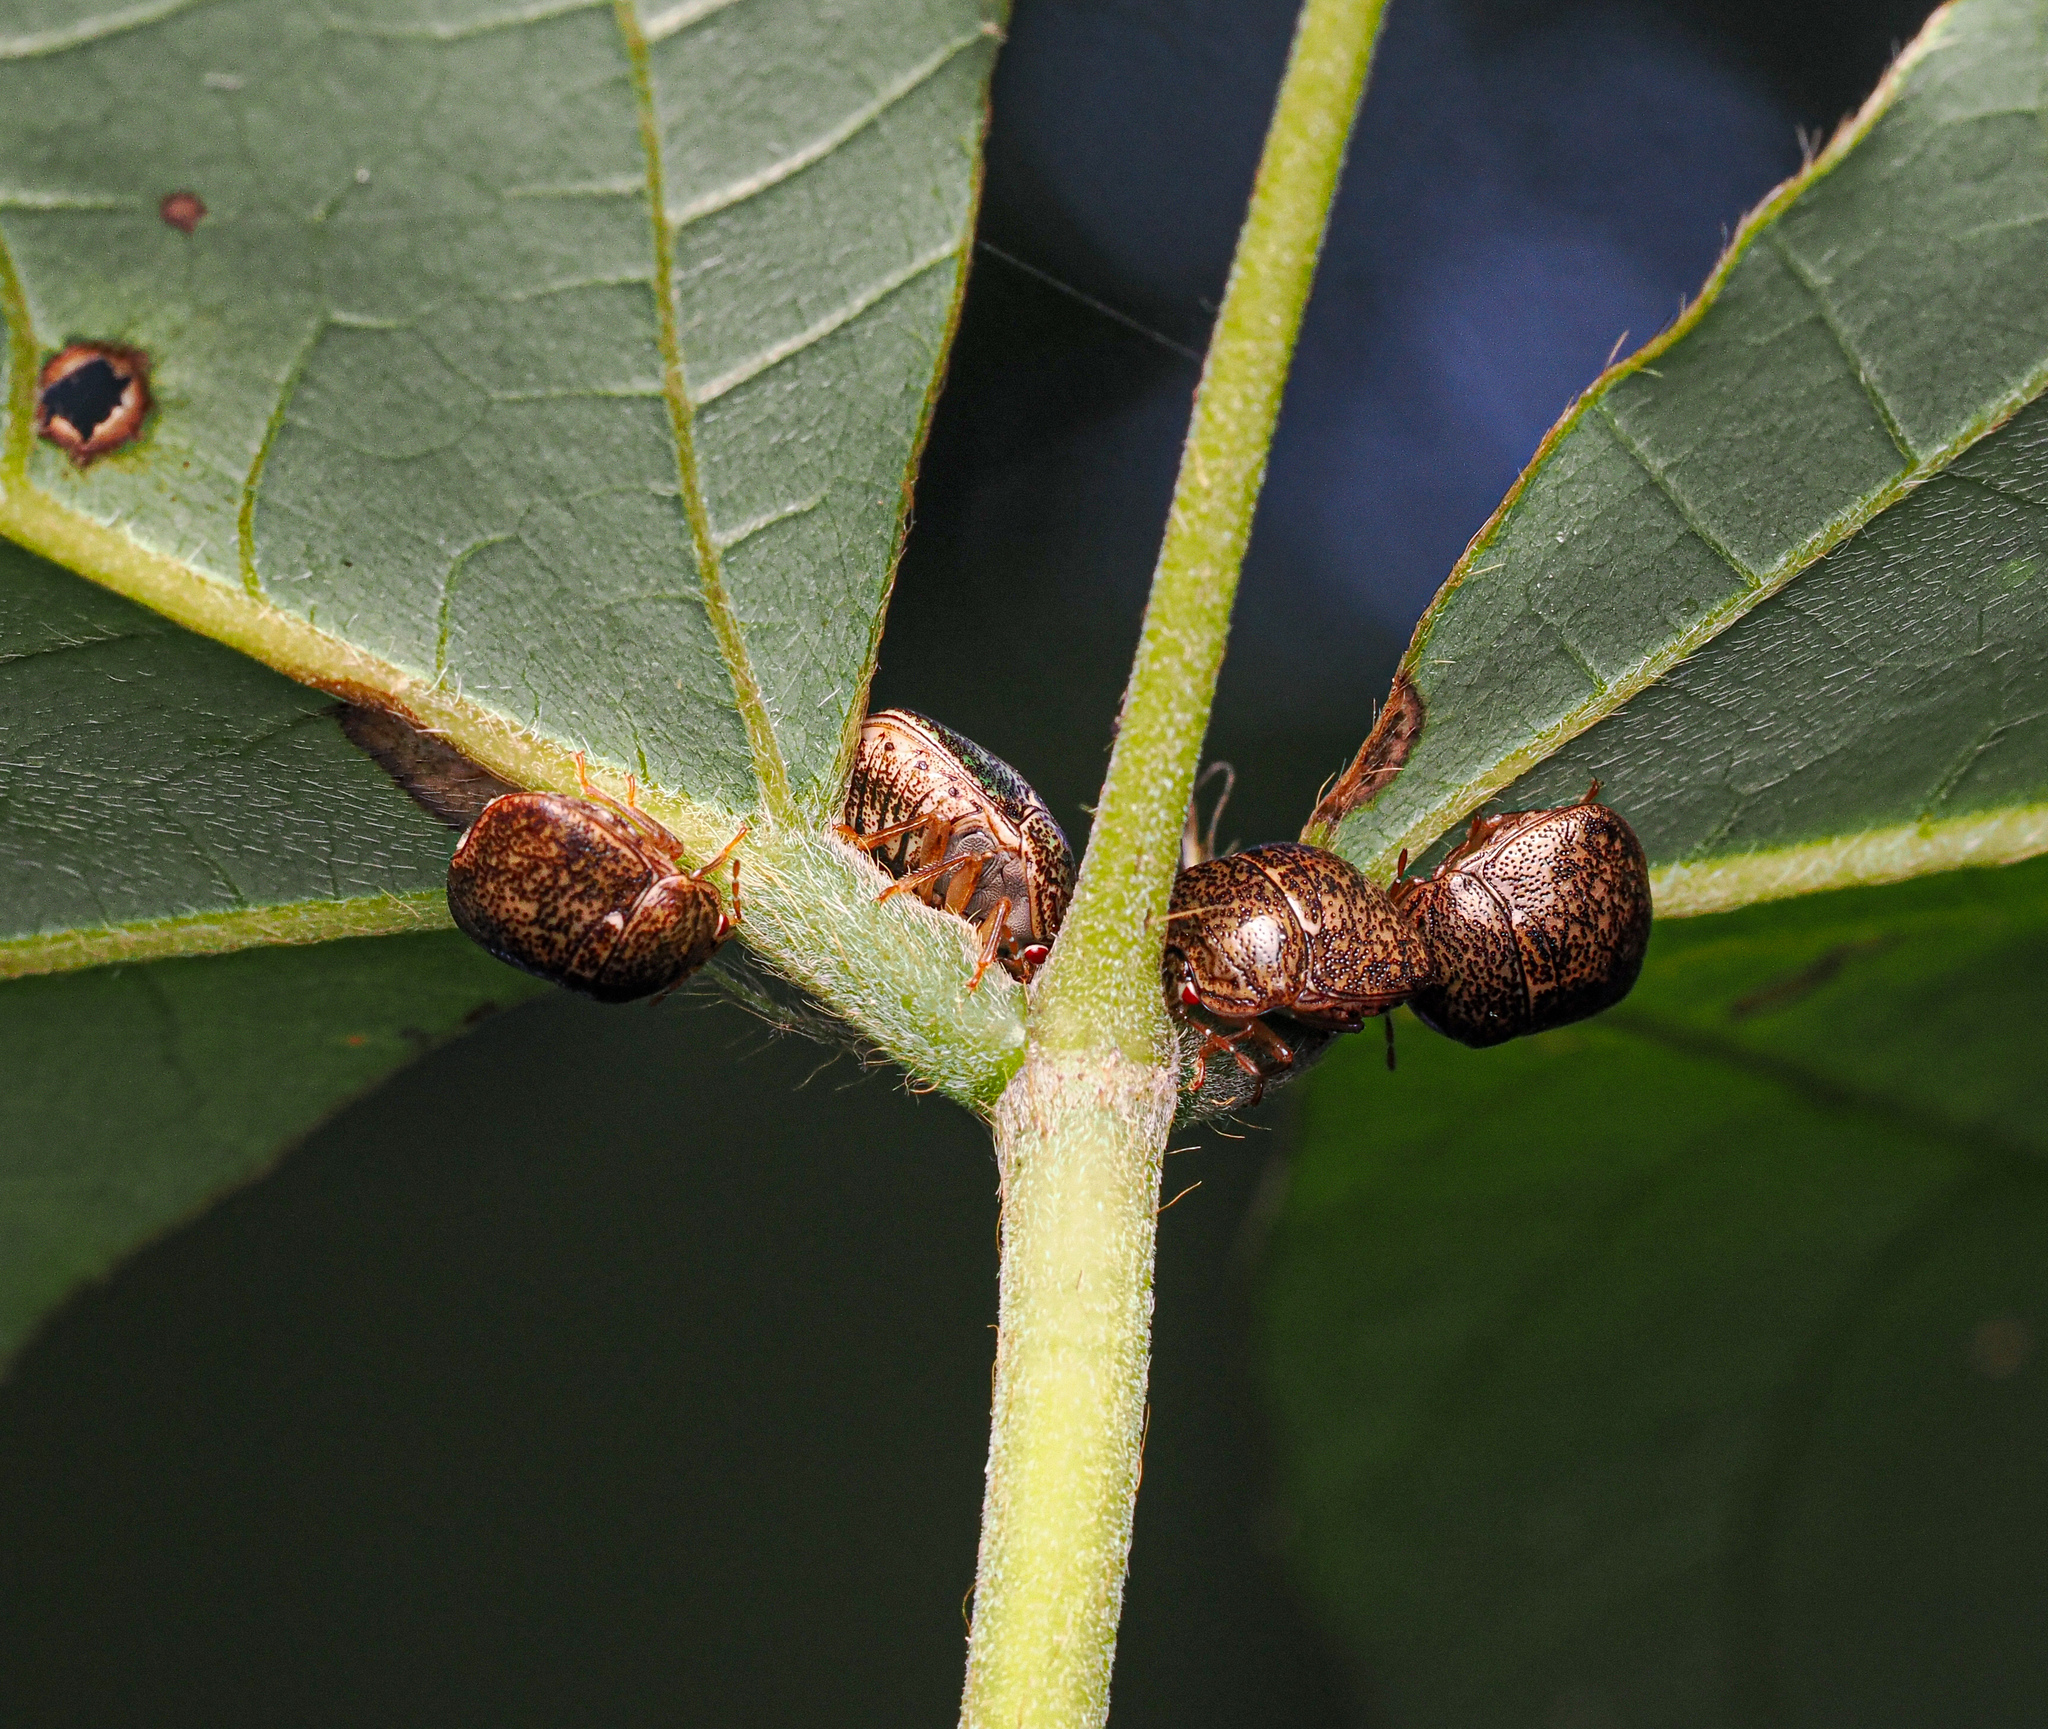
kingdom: Animalia
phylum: Arthropoda
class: Insecta
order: Hemiptera
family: Plataspidae
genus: Megacopta
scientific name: Megacopta cribraria
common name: Bean plataspid
